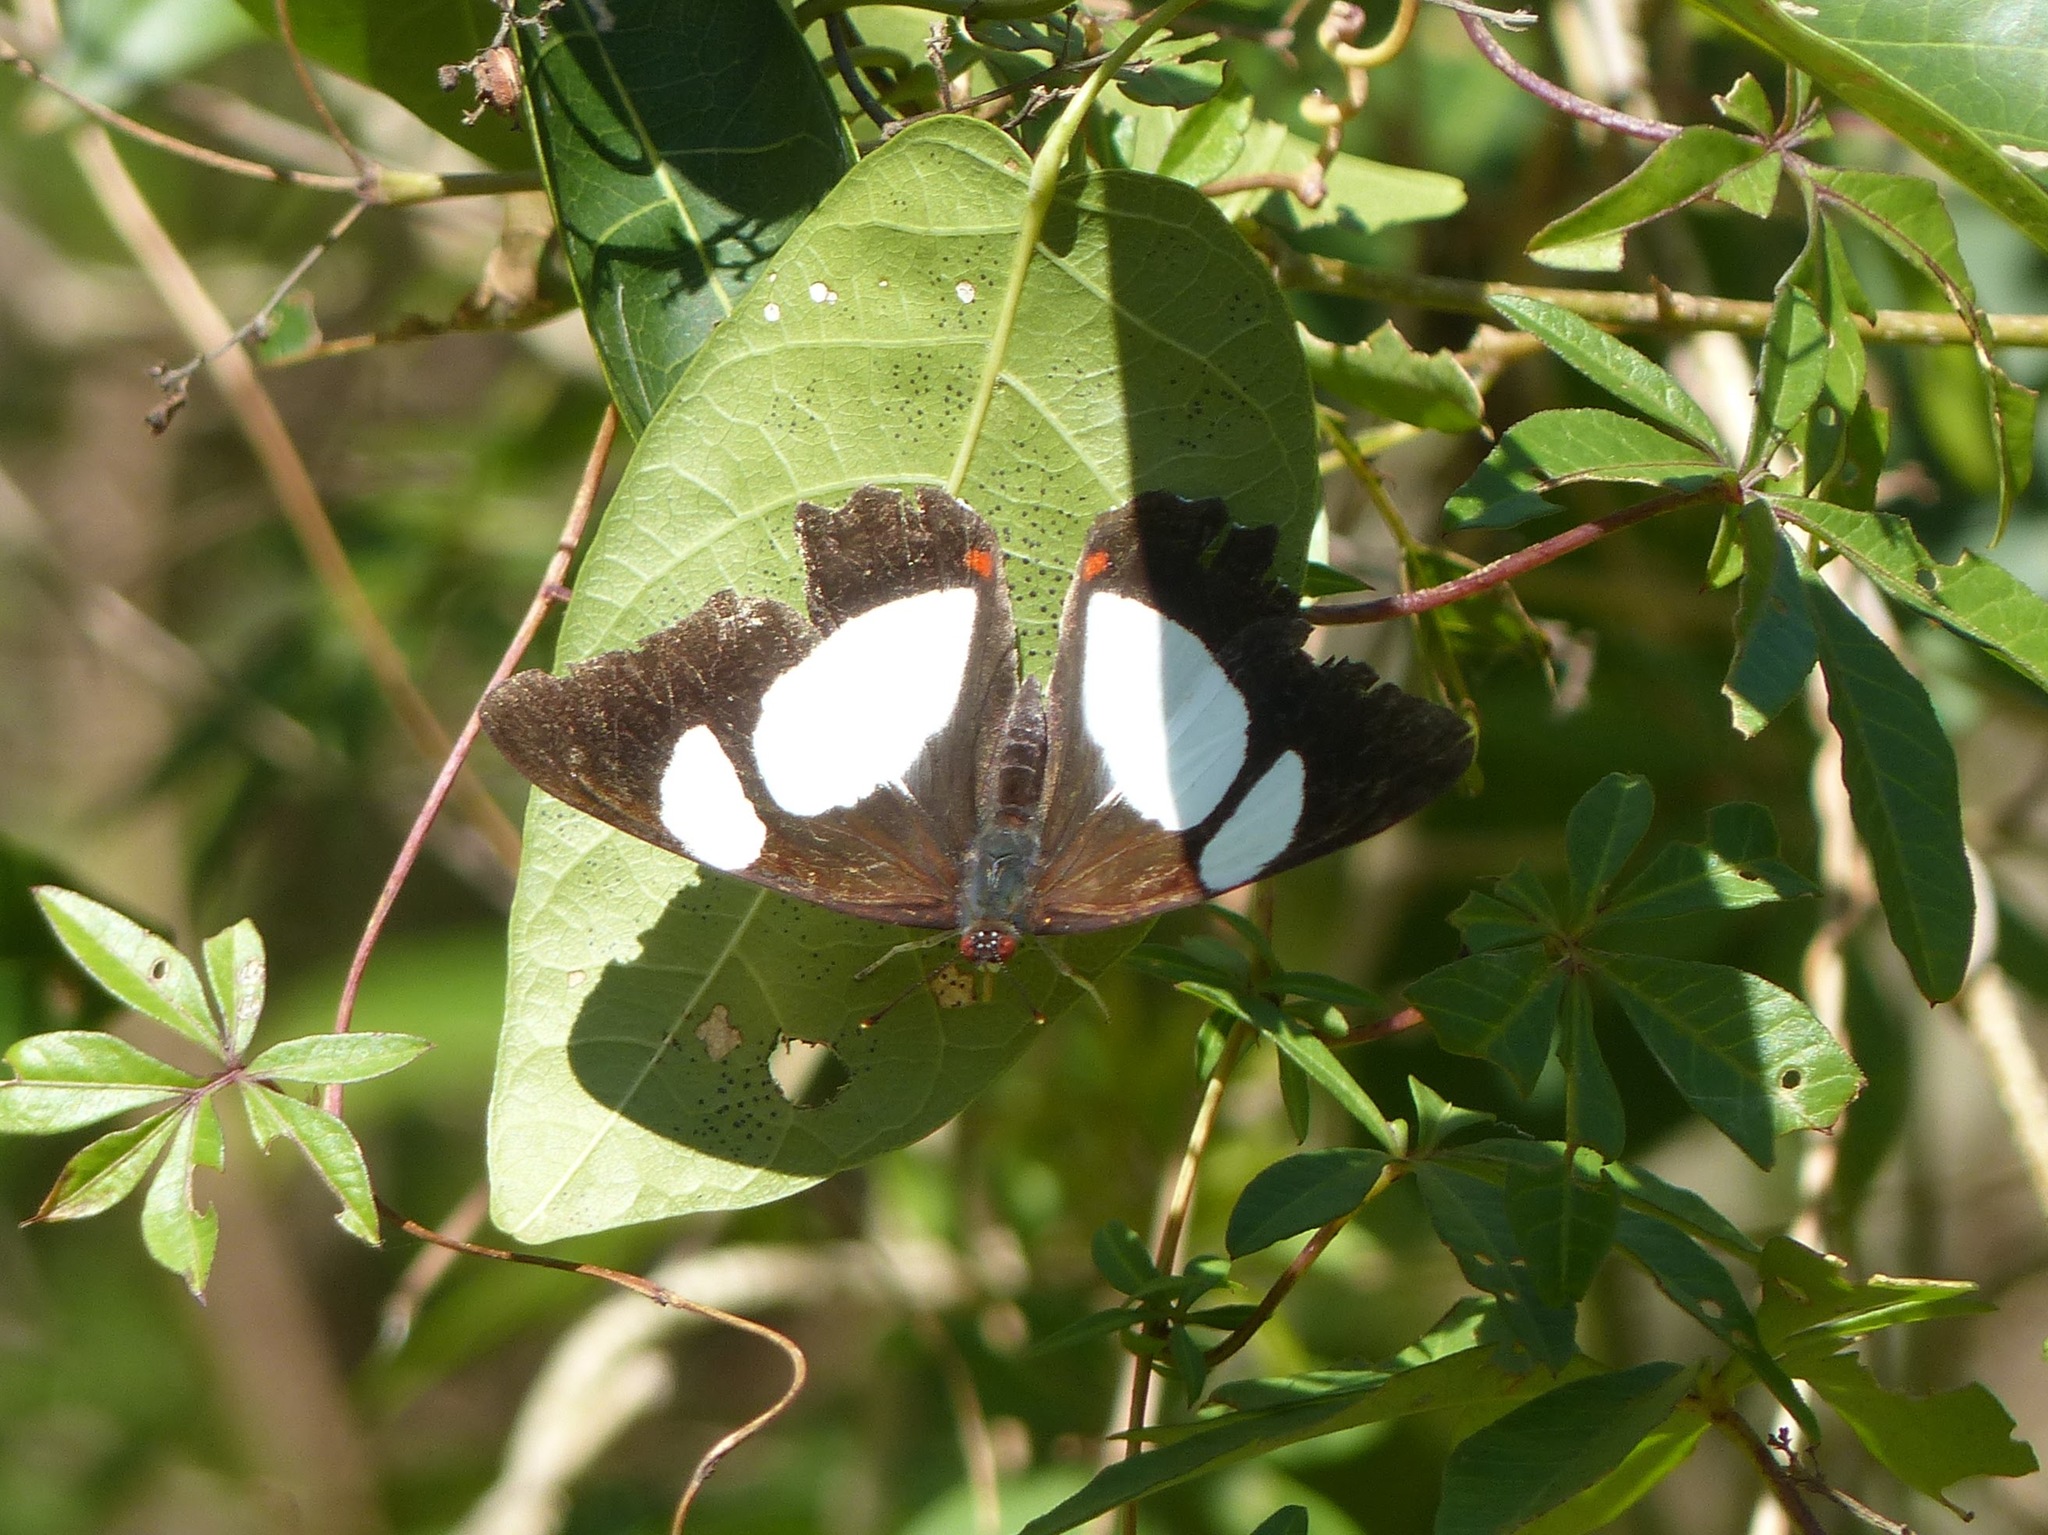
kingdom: Animalia
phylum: Arthropoda
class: Insecta
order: Lepidoptera
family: Nymphalidae
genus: Pyrrhogyra
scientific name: Pyrrhogyra neaerea
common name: Leading red-ring
